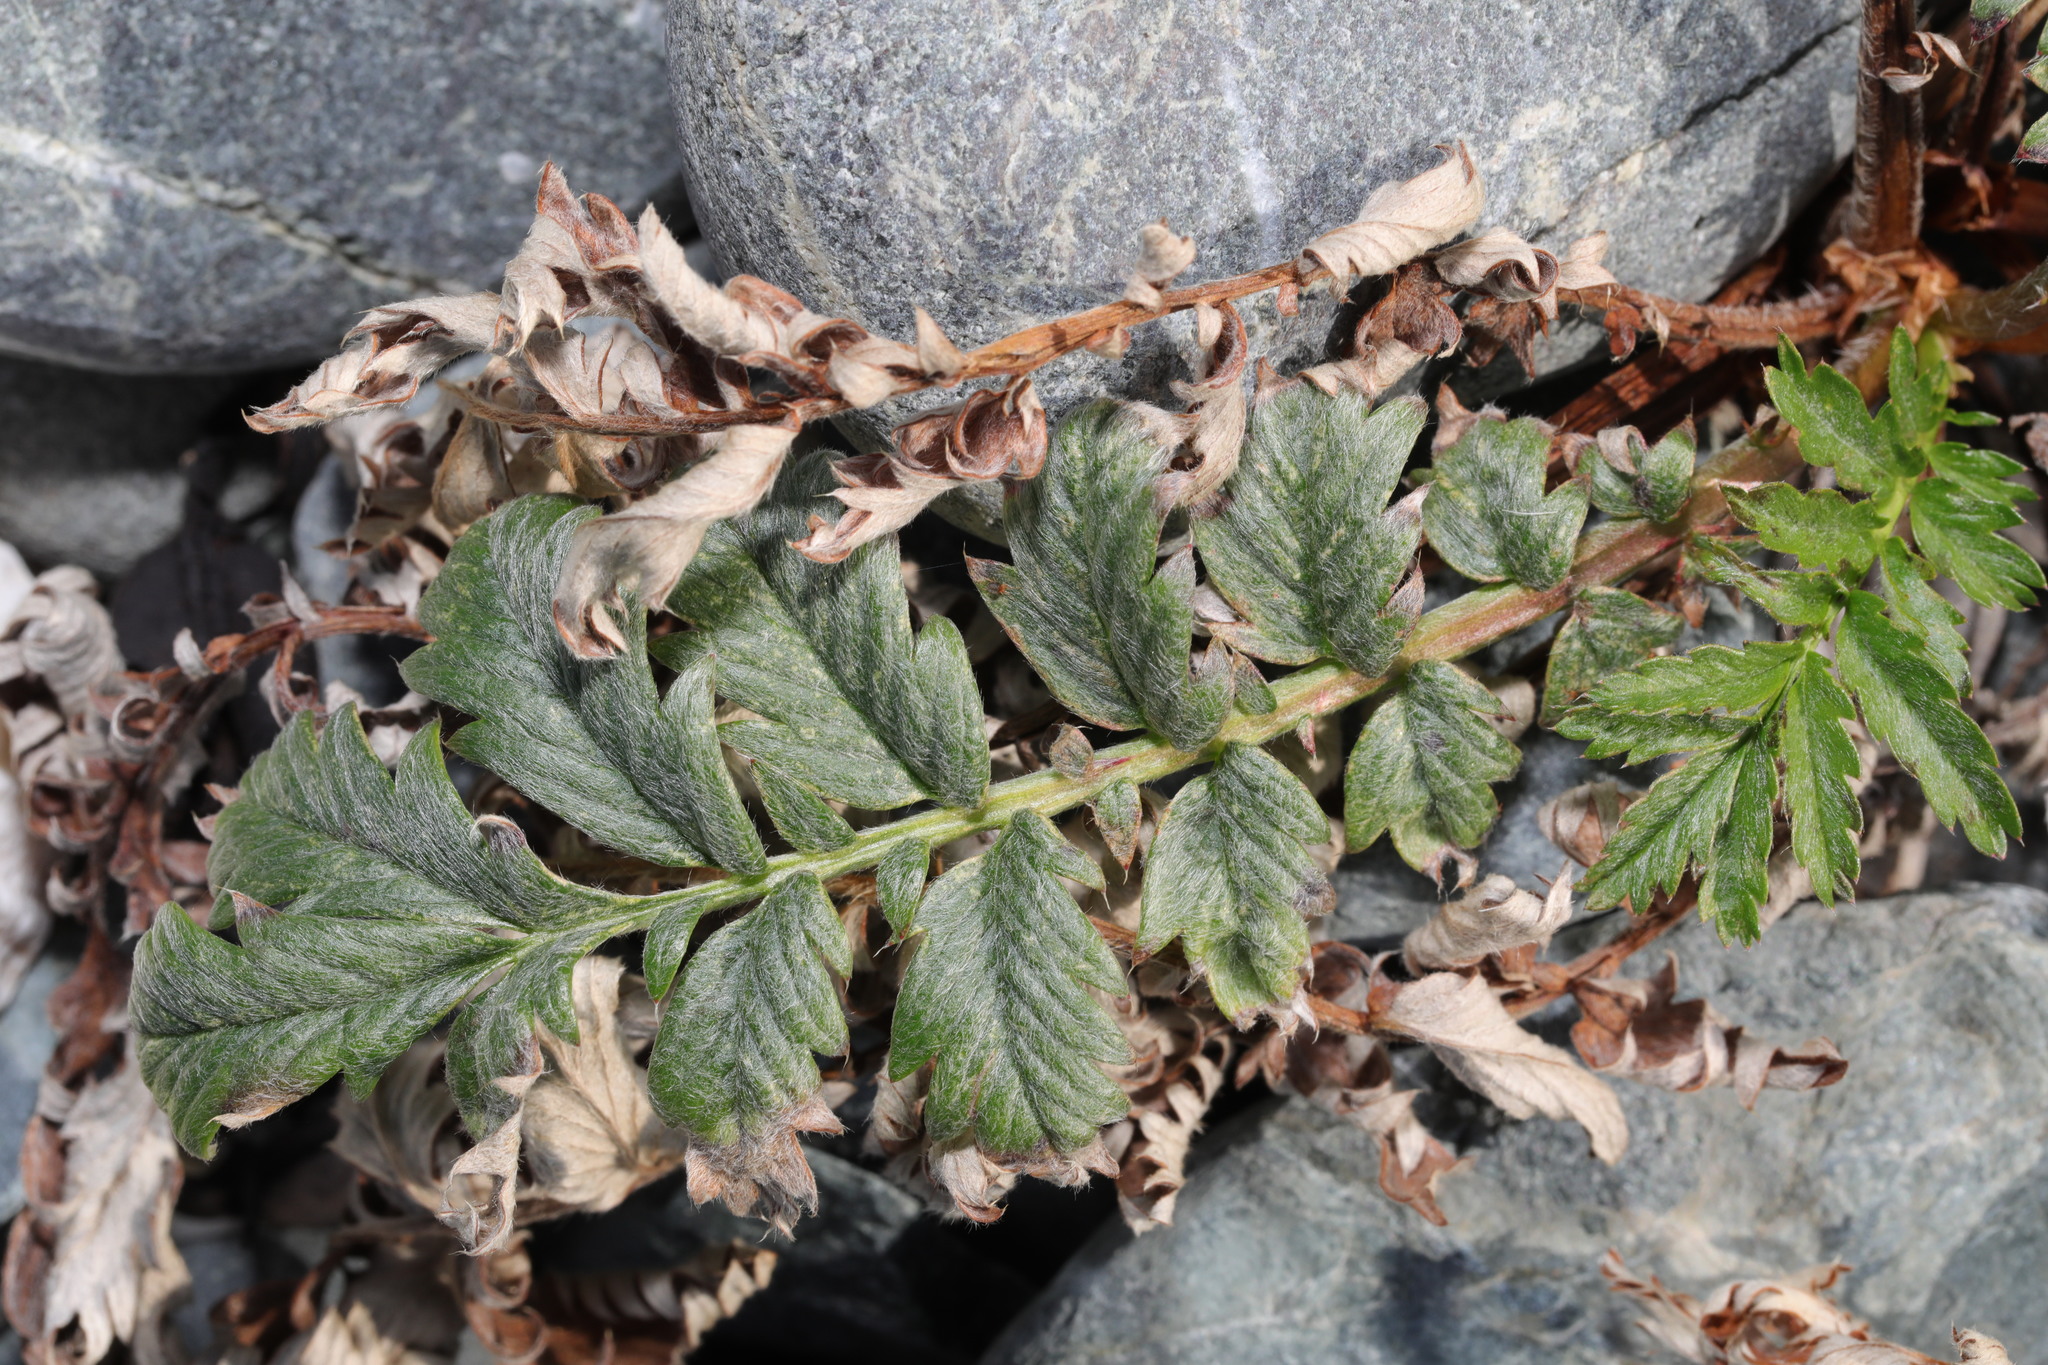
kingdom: Plantae
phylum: Tracheophyta
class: Magnoliopsida
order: Rosales
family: Rosaceae
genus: Argentina
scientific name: Argentina anserina
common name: Common silverweed
